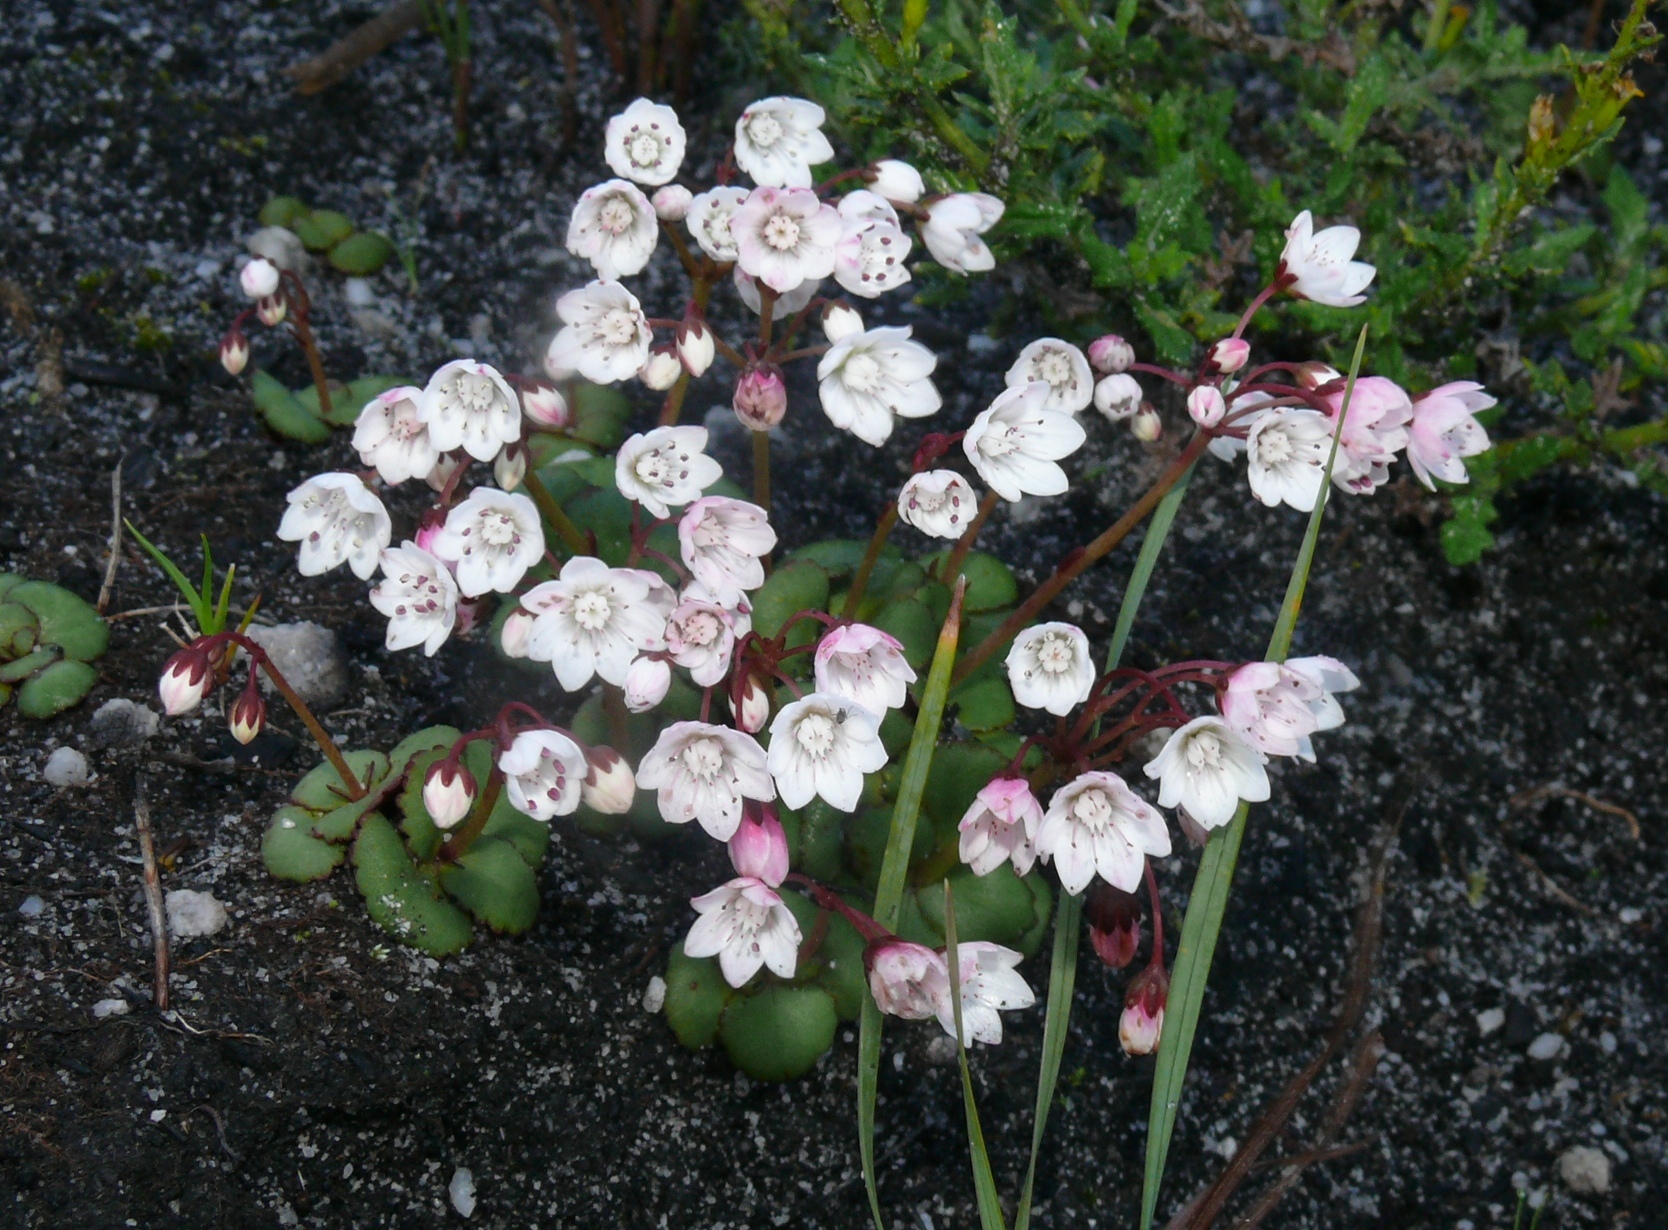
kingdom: Plantae
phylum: Tracheophyta
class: Magnoliopsida
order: Saxifragales
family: Crassulaceae
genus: Crassula
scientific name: Crassula capensis
